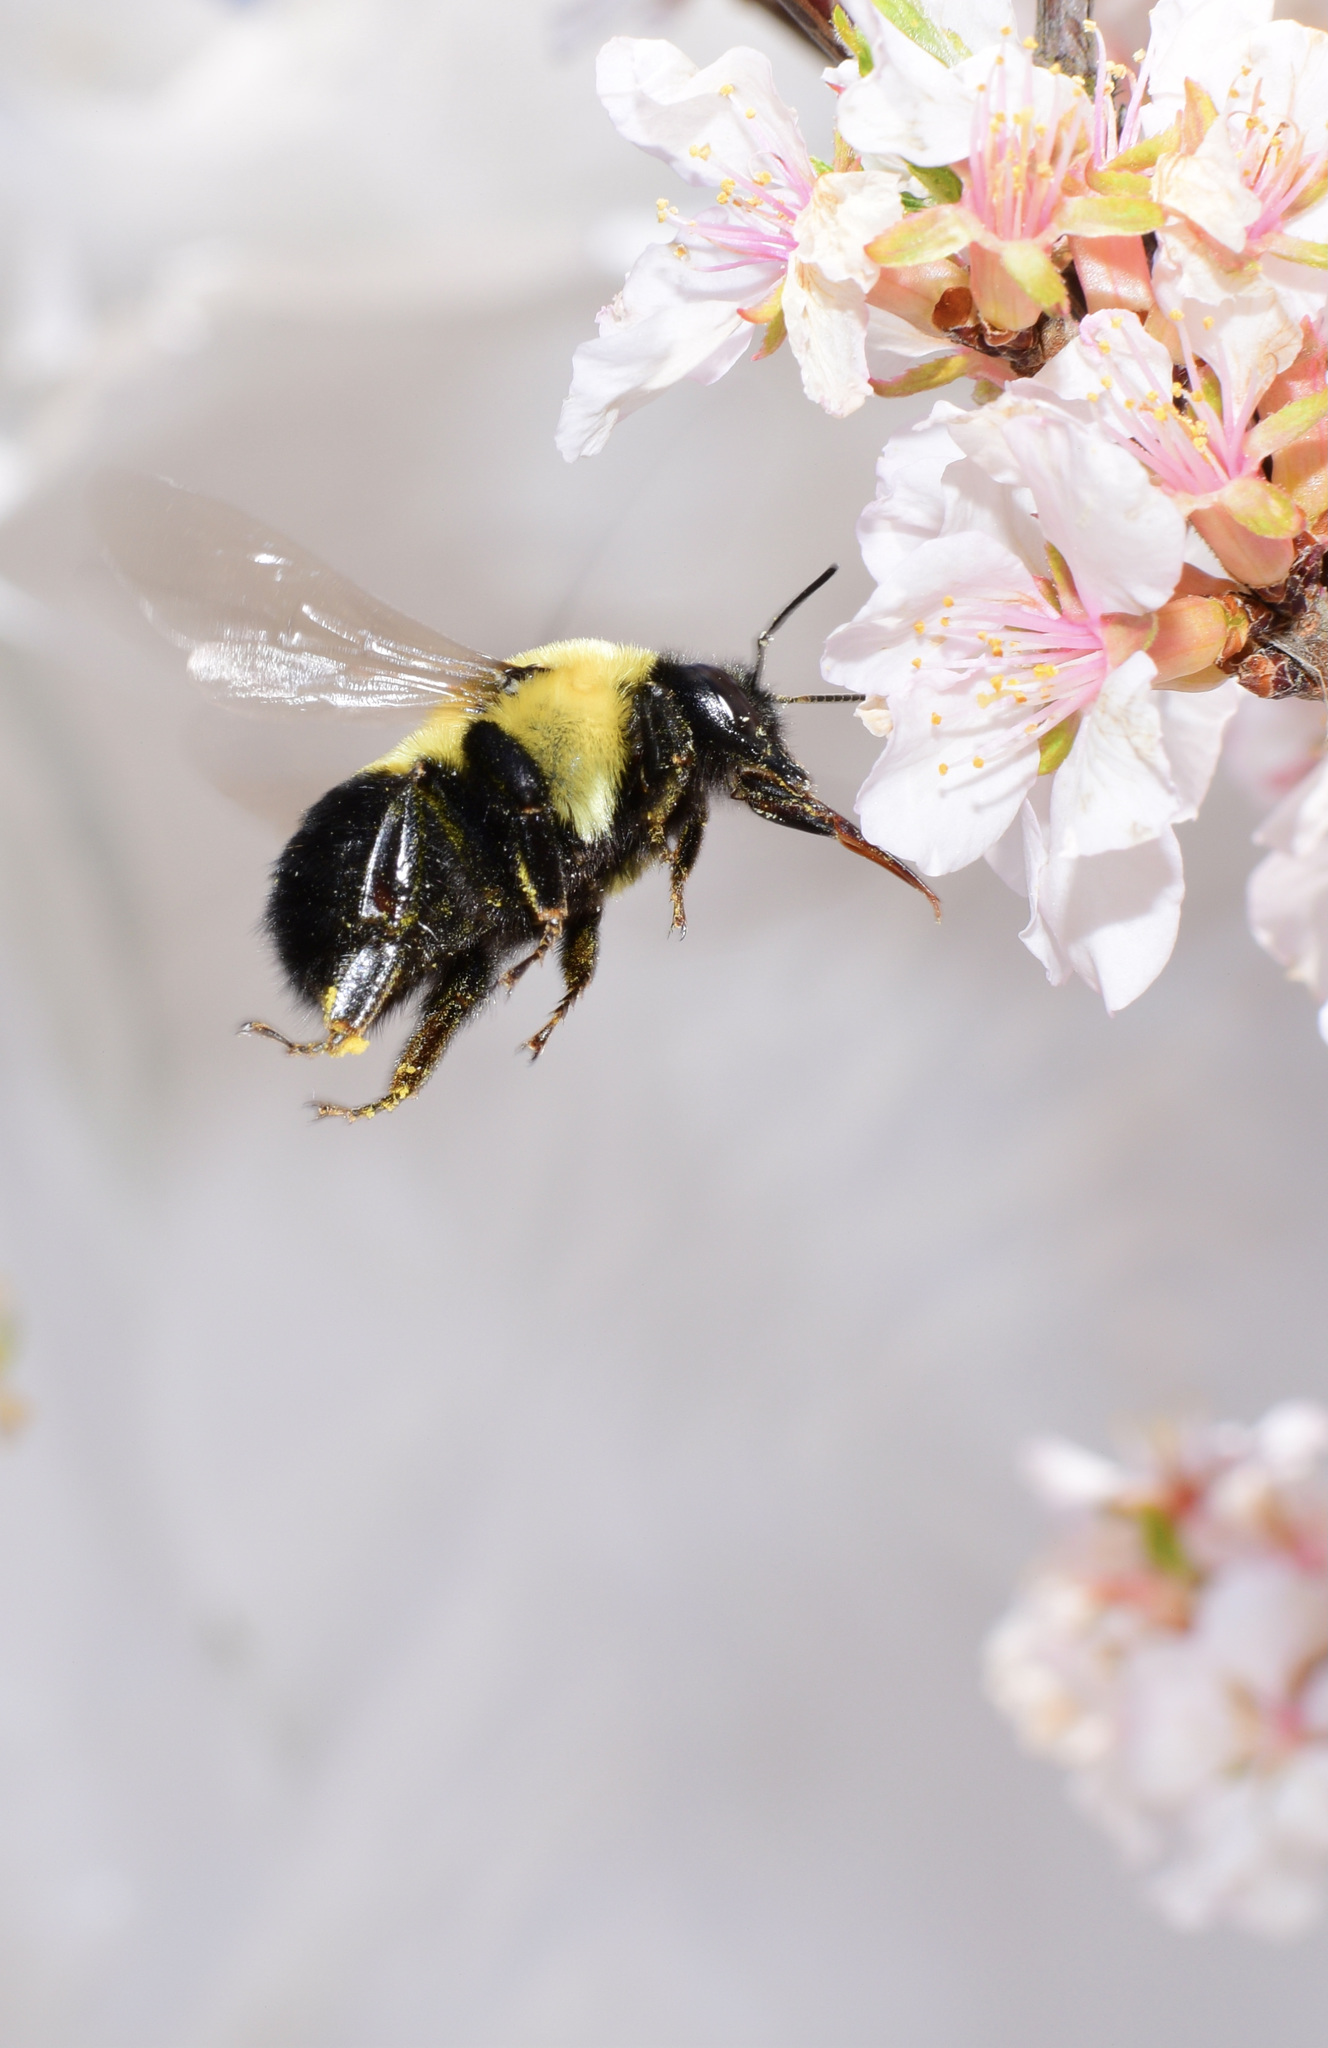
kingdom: Animalia
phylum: Arthropoda
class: Insecta
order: Hymenoptera
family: Apidae
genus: Bombus
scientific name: Bombus griseocollis
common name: Brown-belted bumble bee
